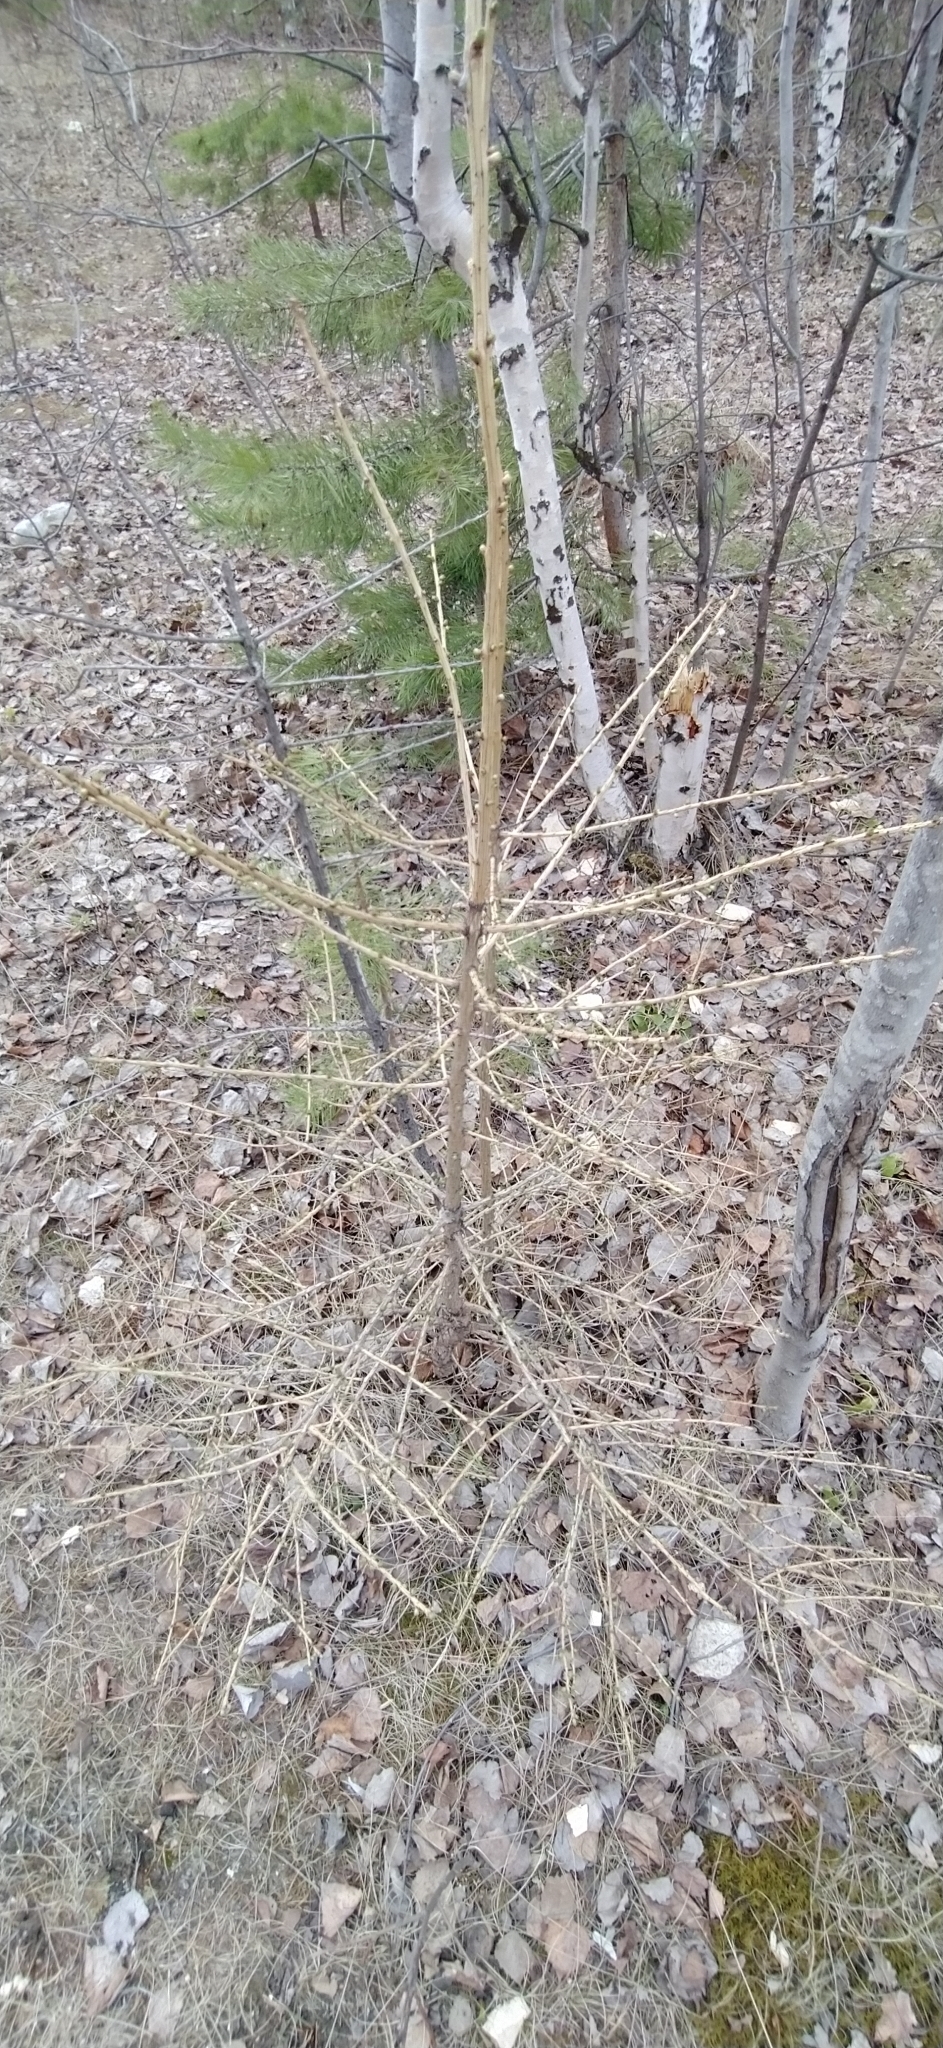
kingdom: Plantae
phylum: Tracheophyta
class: Pinopsida
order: Pinales
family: Pinaceae
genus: Larix
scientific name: Larix sibirica
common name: Siberian larch
